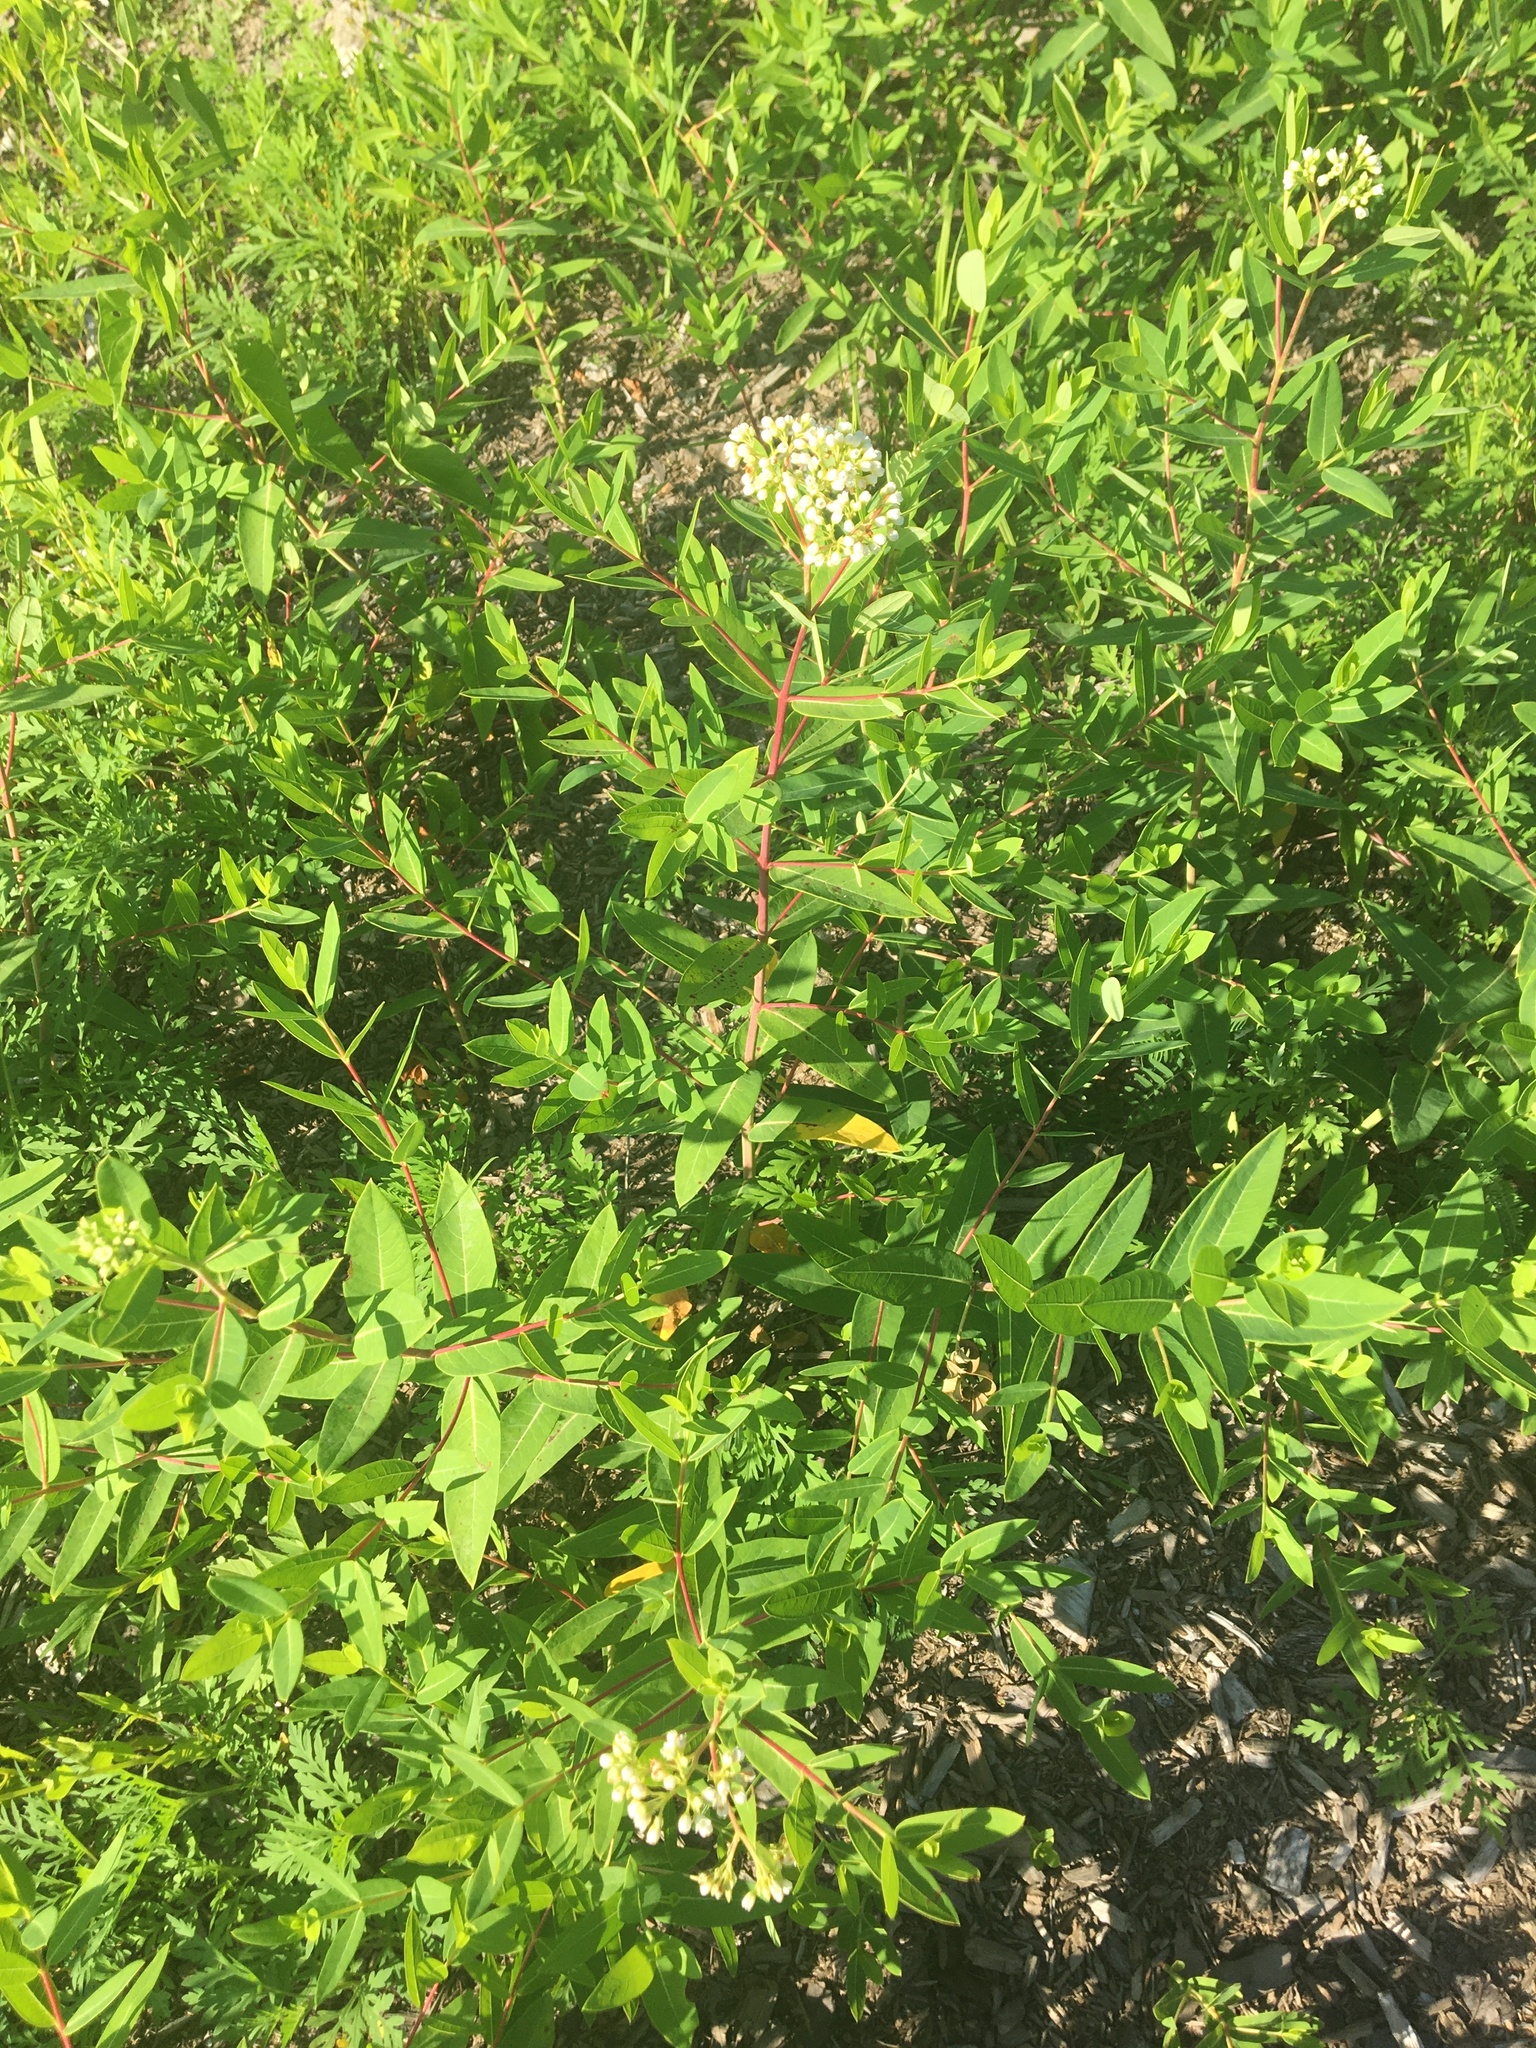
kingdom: Plantae
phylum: Tracheophyta
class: Magnoliopsida
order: Gentianales
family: Apocynaceae
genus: Apocynum
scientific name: Apocynum cannabinum
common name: Hemp dogbane
